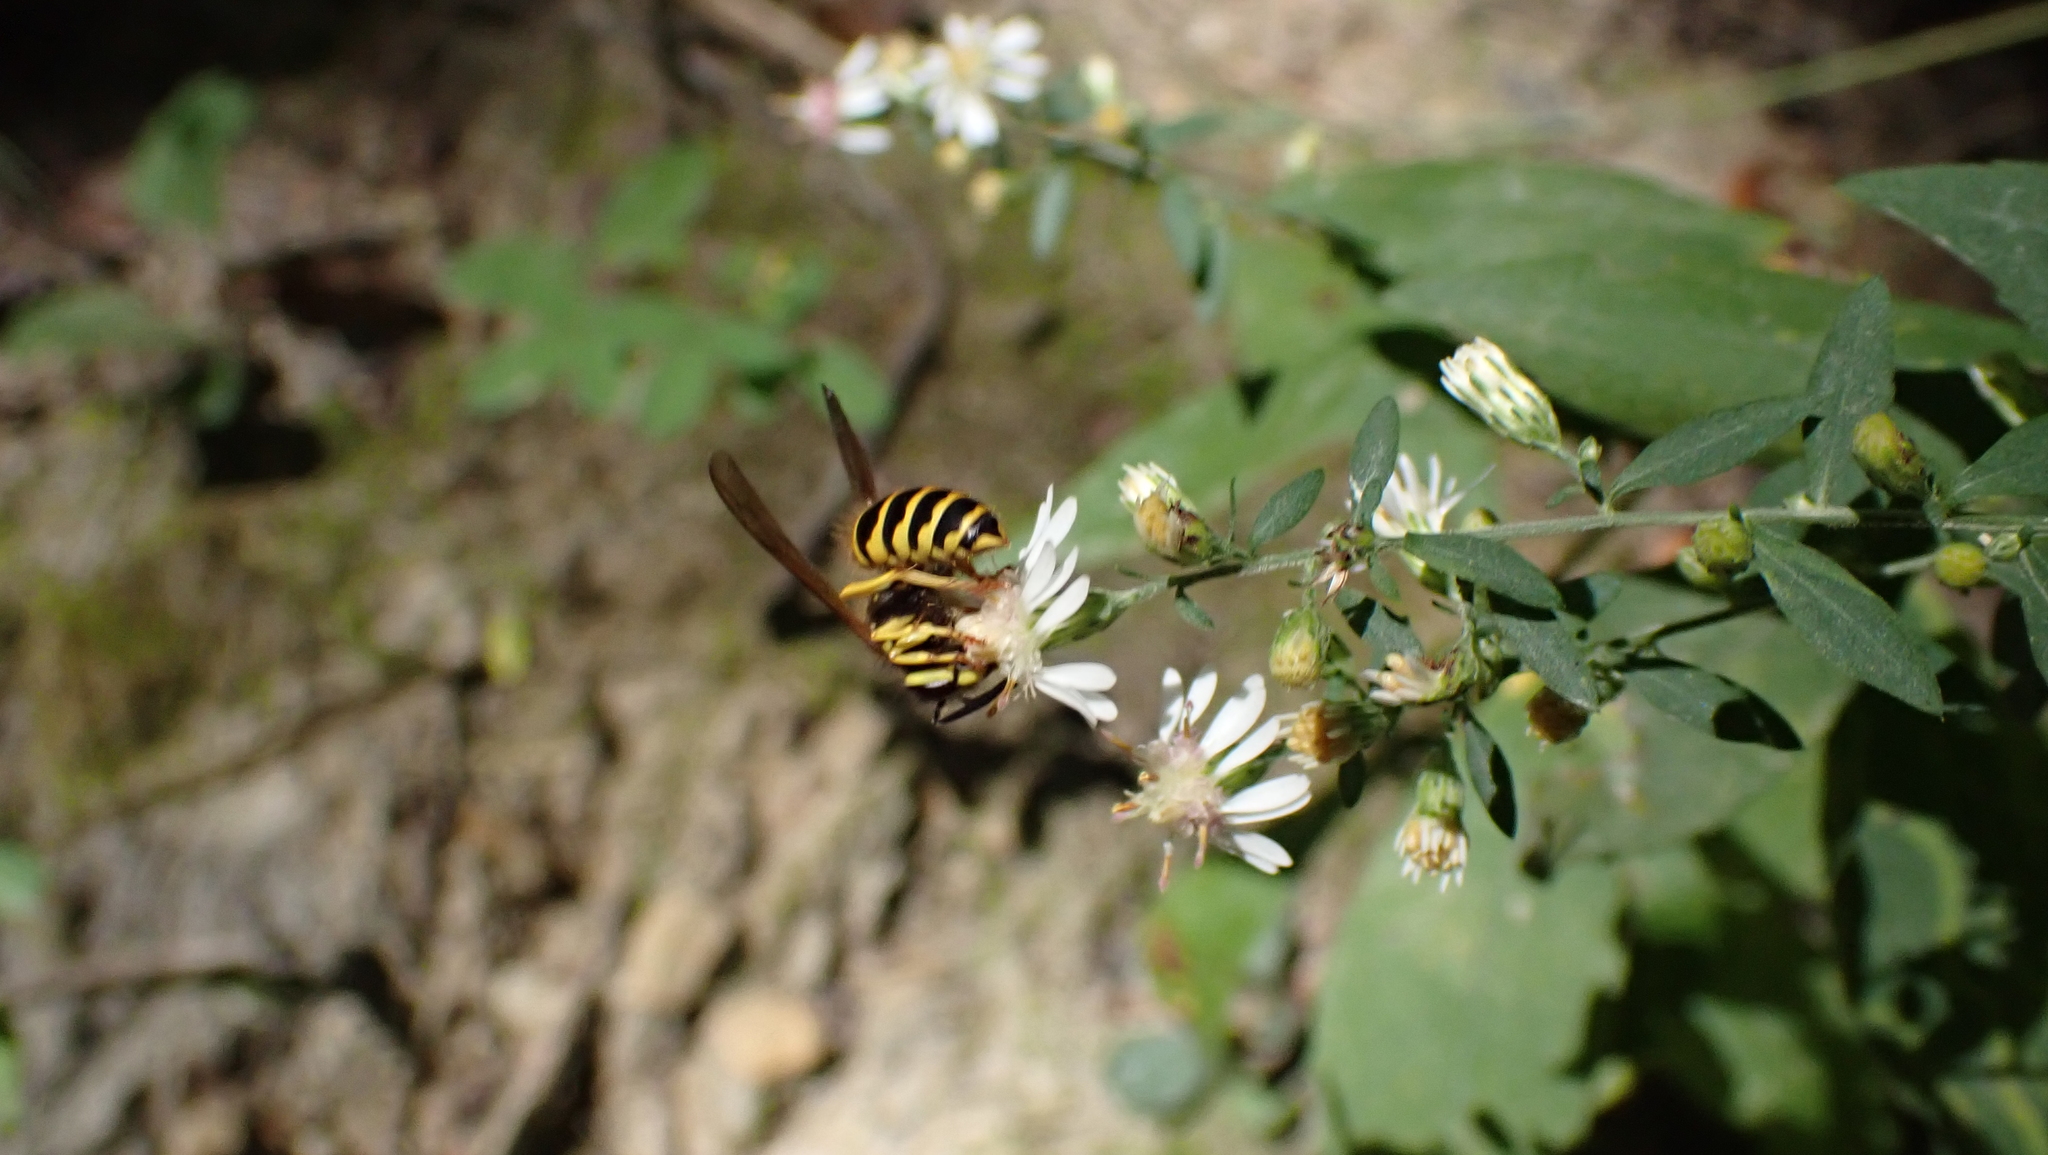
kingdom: Animalia
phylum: Arthropoda
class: Insecta
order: Hymenoptera
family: Vespidae
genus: Vespula
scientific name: Vespula maculifrons
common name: Eastern yellowjacket
